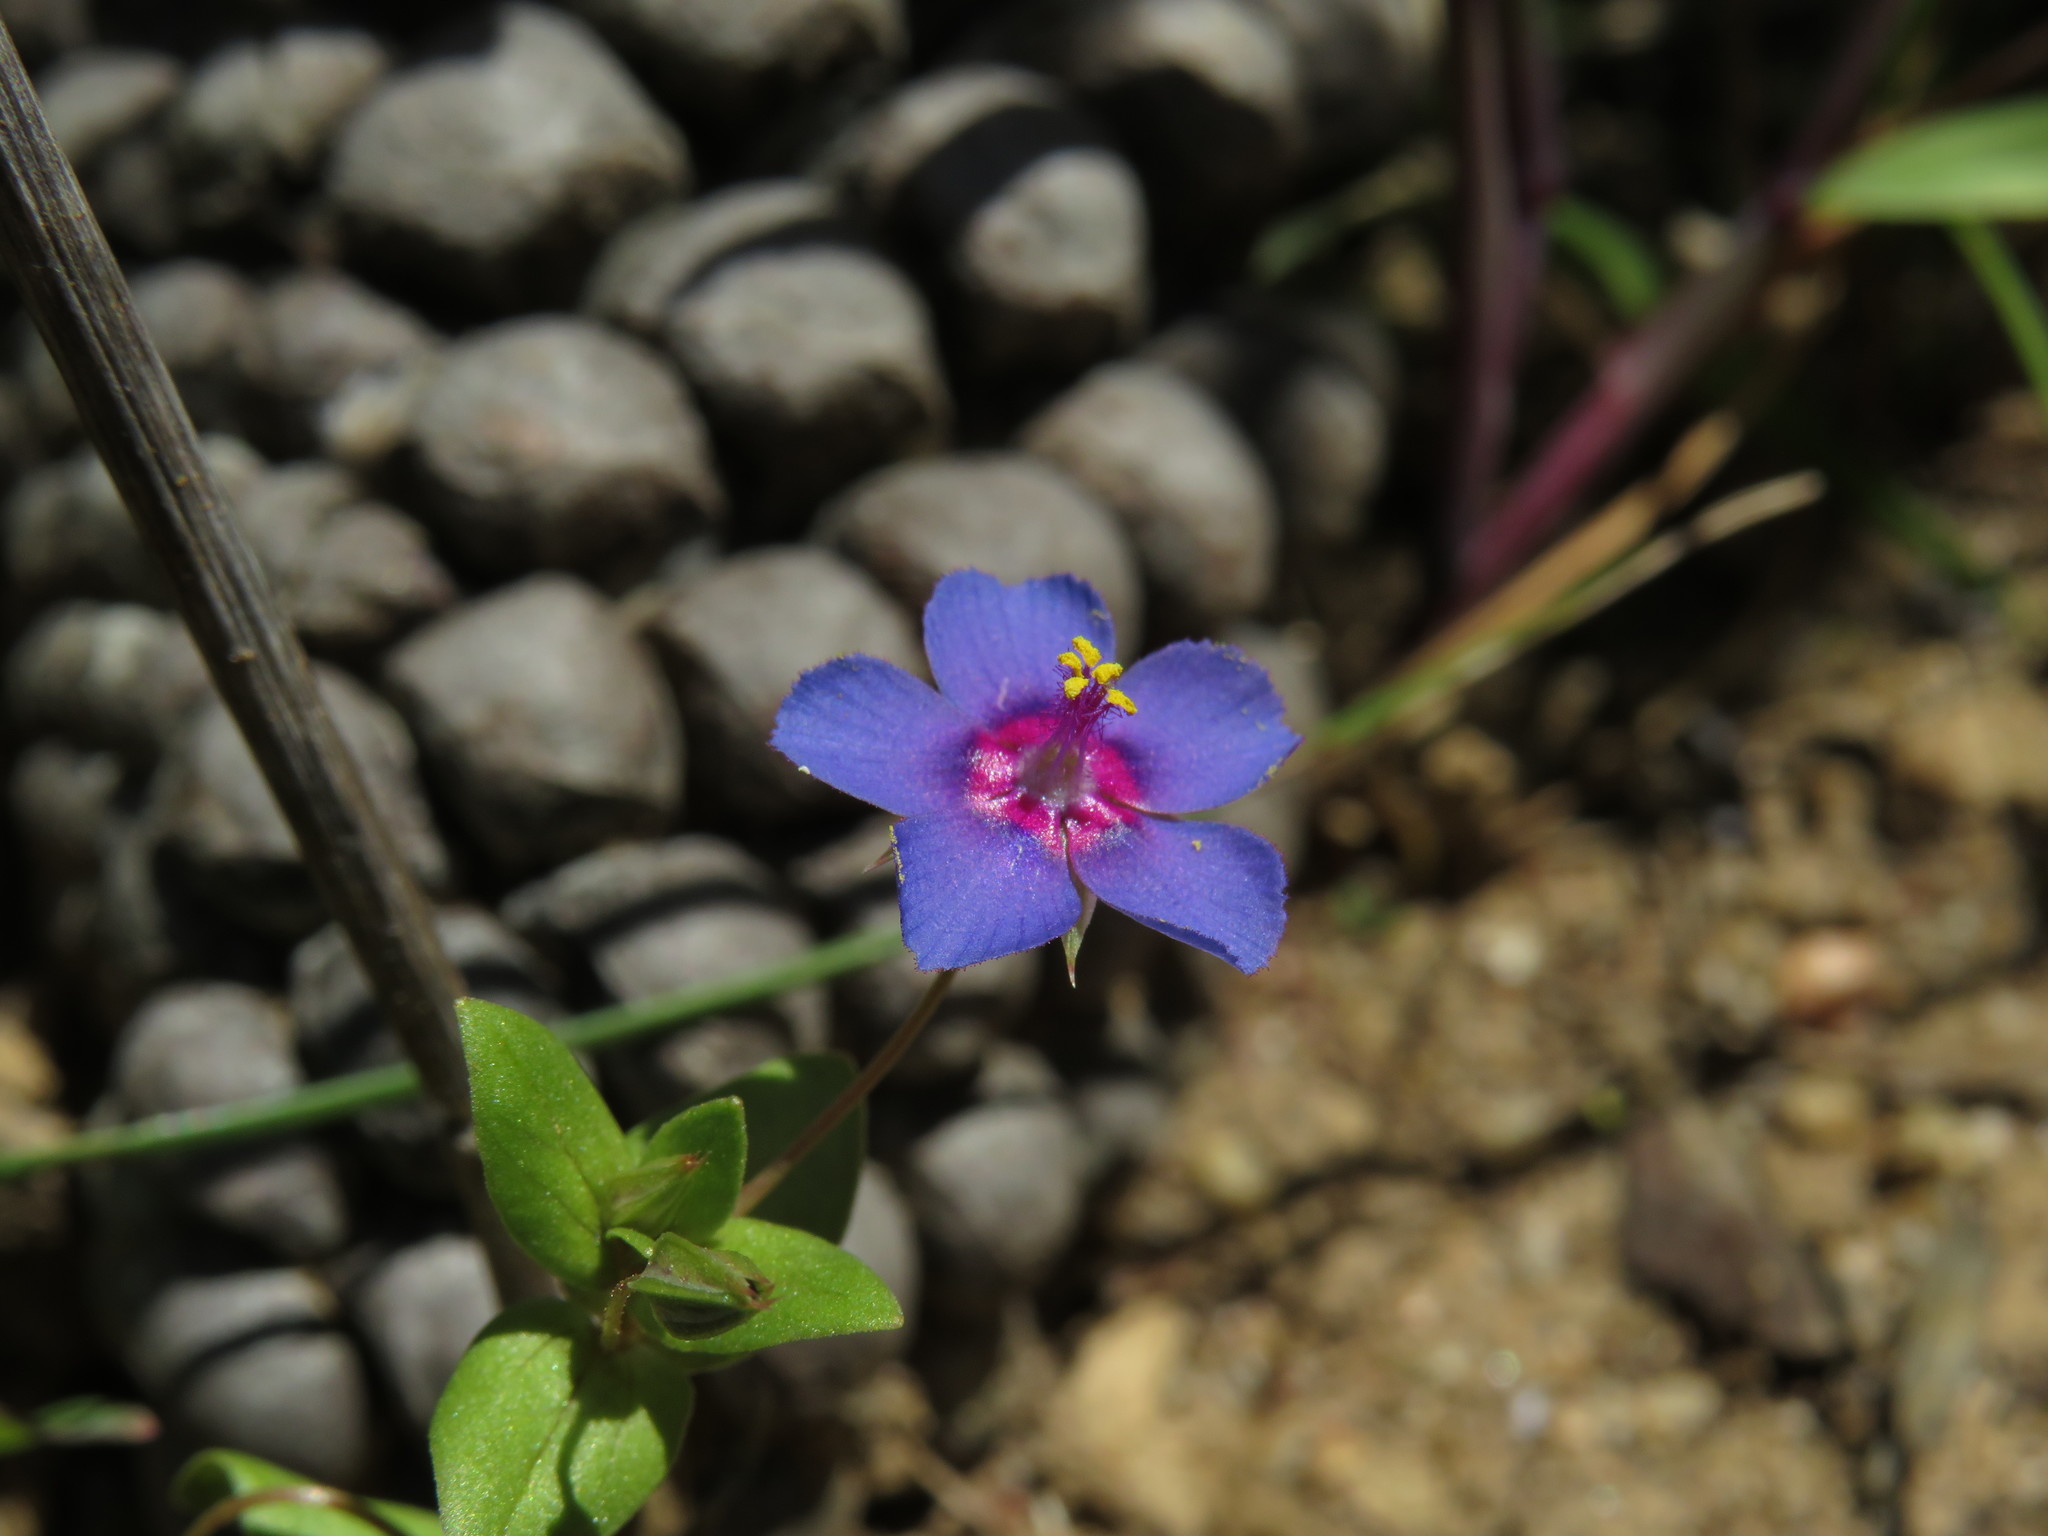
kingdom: Plantae
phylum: Tracheophyta
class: Magnoliopsida
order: Ericales
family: Primulaceae
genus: Lysimachia
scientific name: Lysimachia loeflingii
